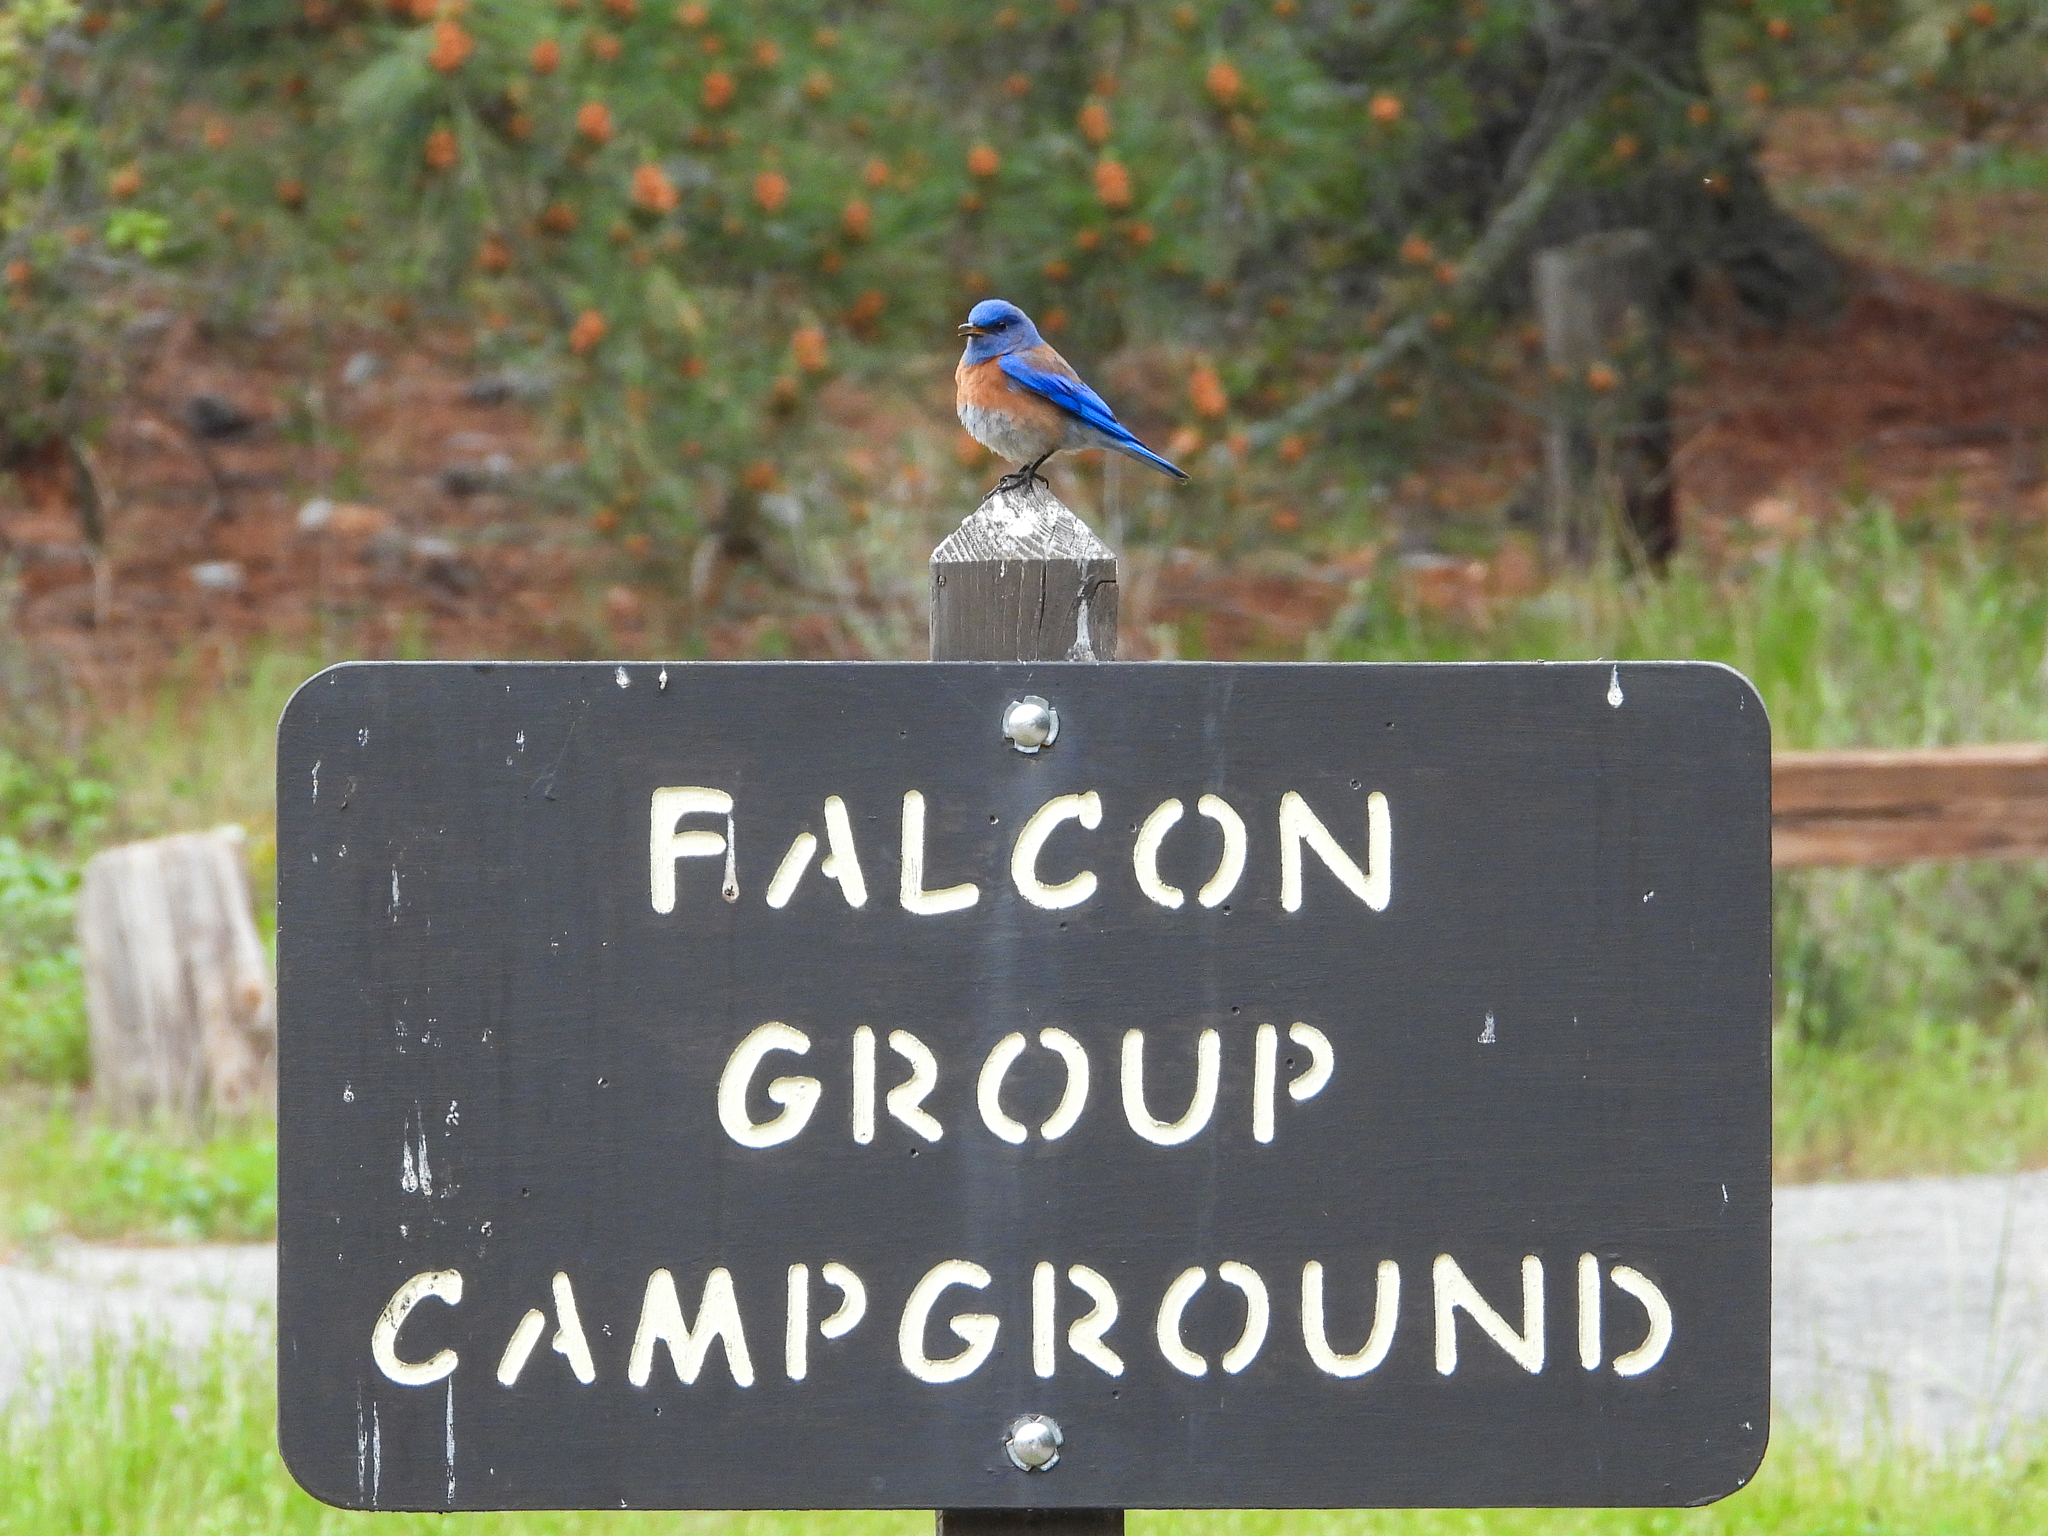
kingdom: Animalia
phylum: Chordata
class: Aves
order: Passeriformes
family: Turdidae
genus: Sialia
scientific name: Sialia mexicana
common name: Western bluebird
